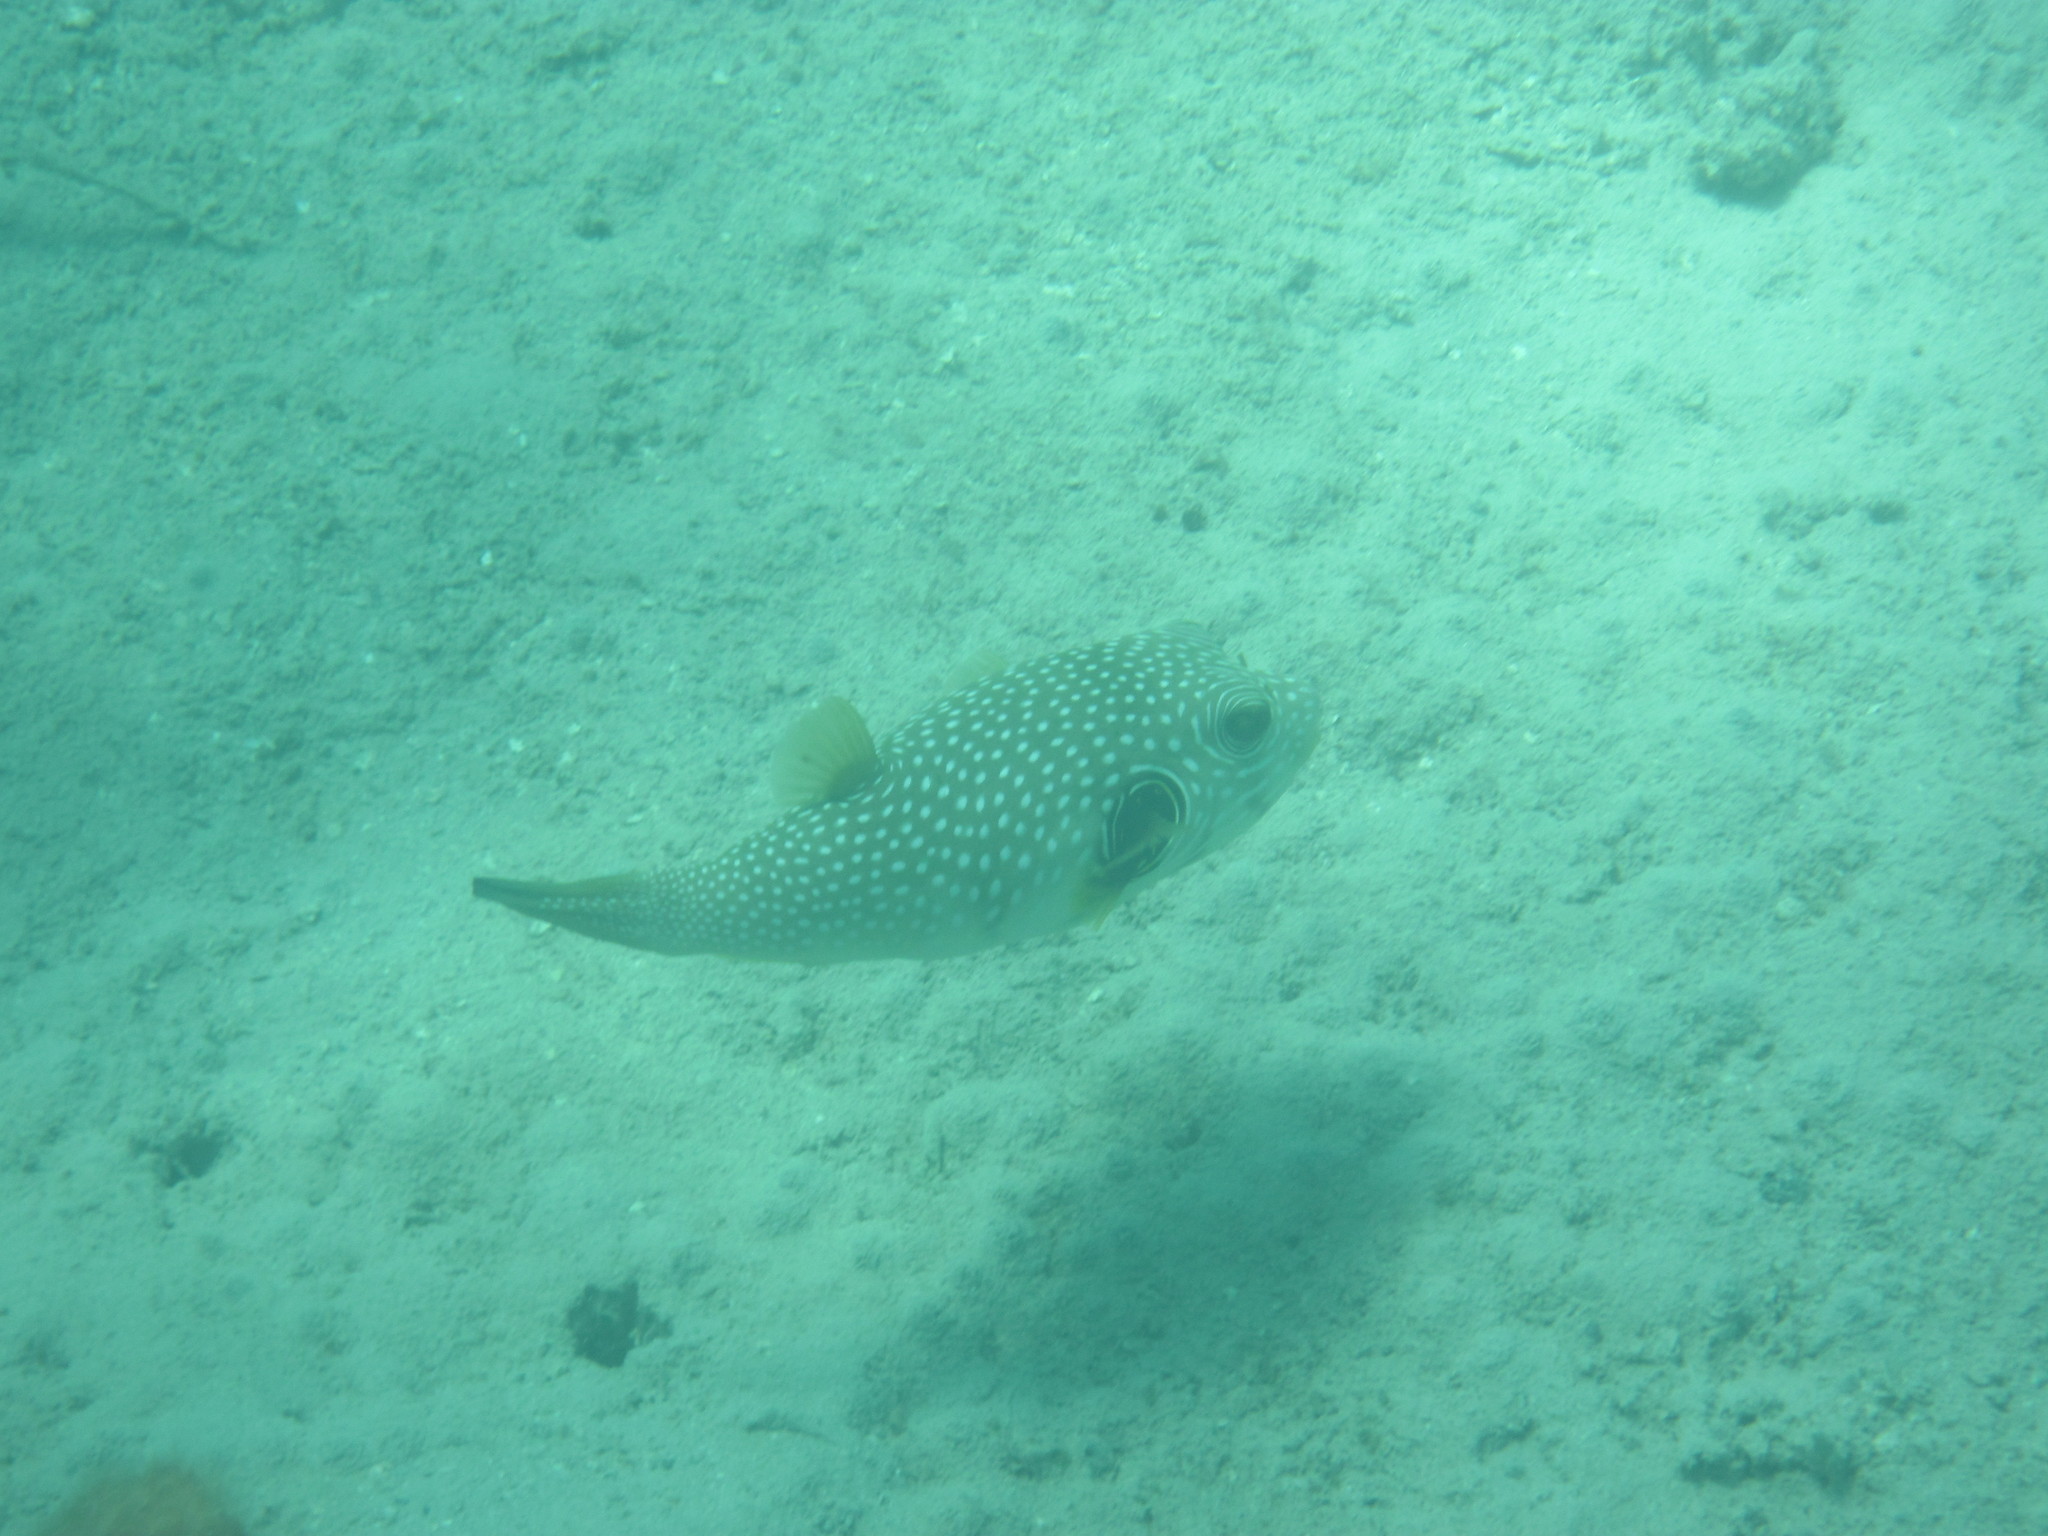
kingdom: Animalia
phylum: Chordata
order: Tetraodontiformes
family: Tetraodontidae
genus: Arothron
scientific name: Arothron hispidus
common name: Stripebelly puffer
